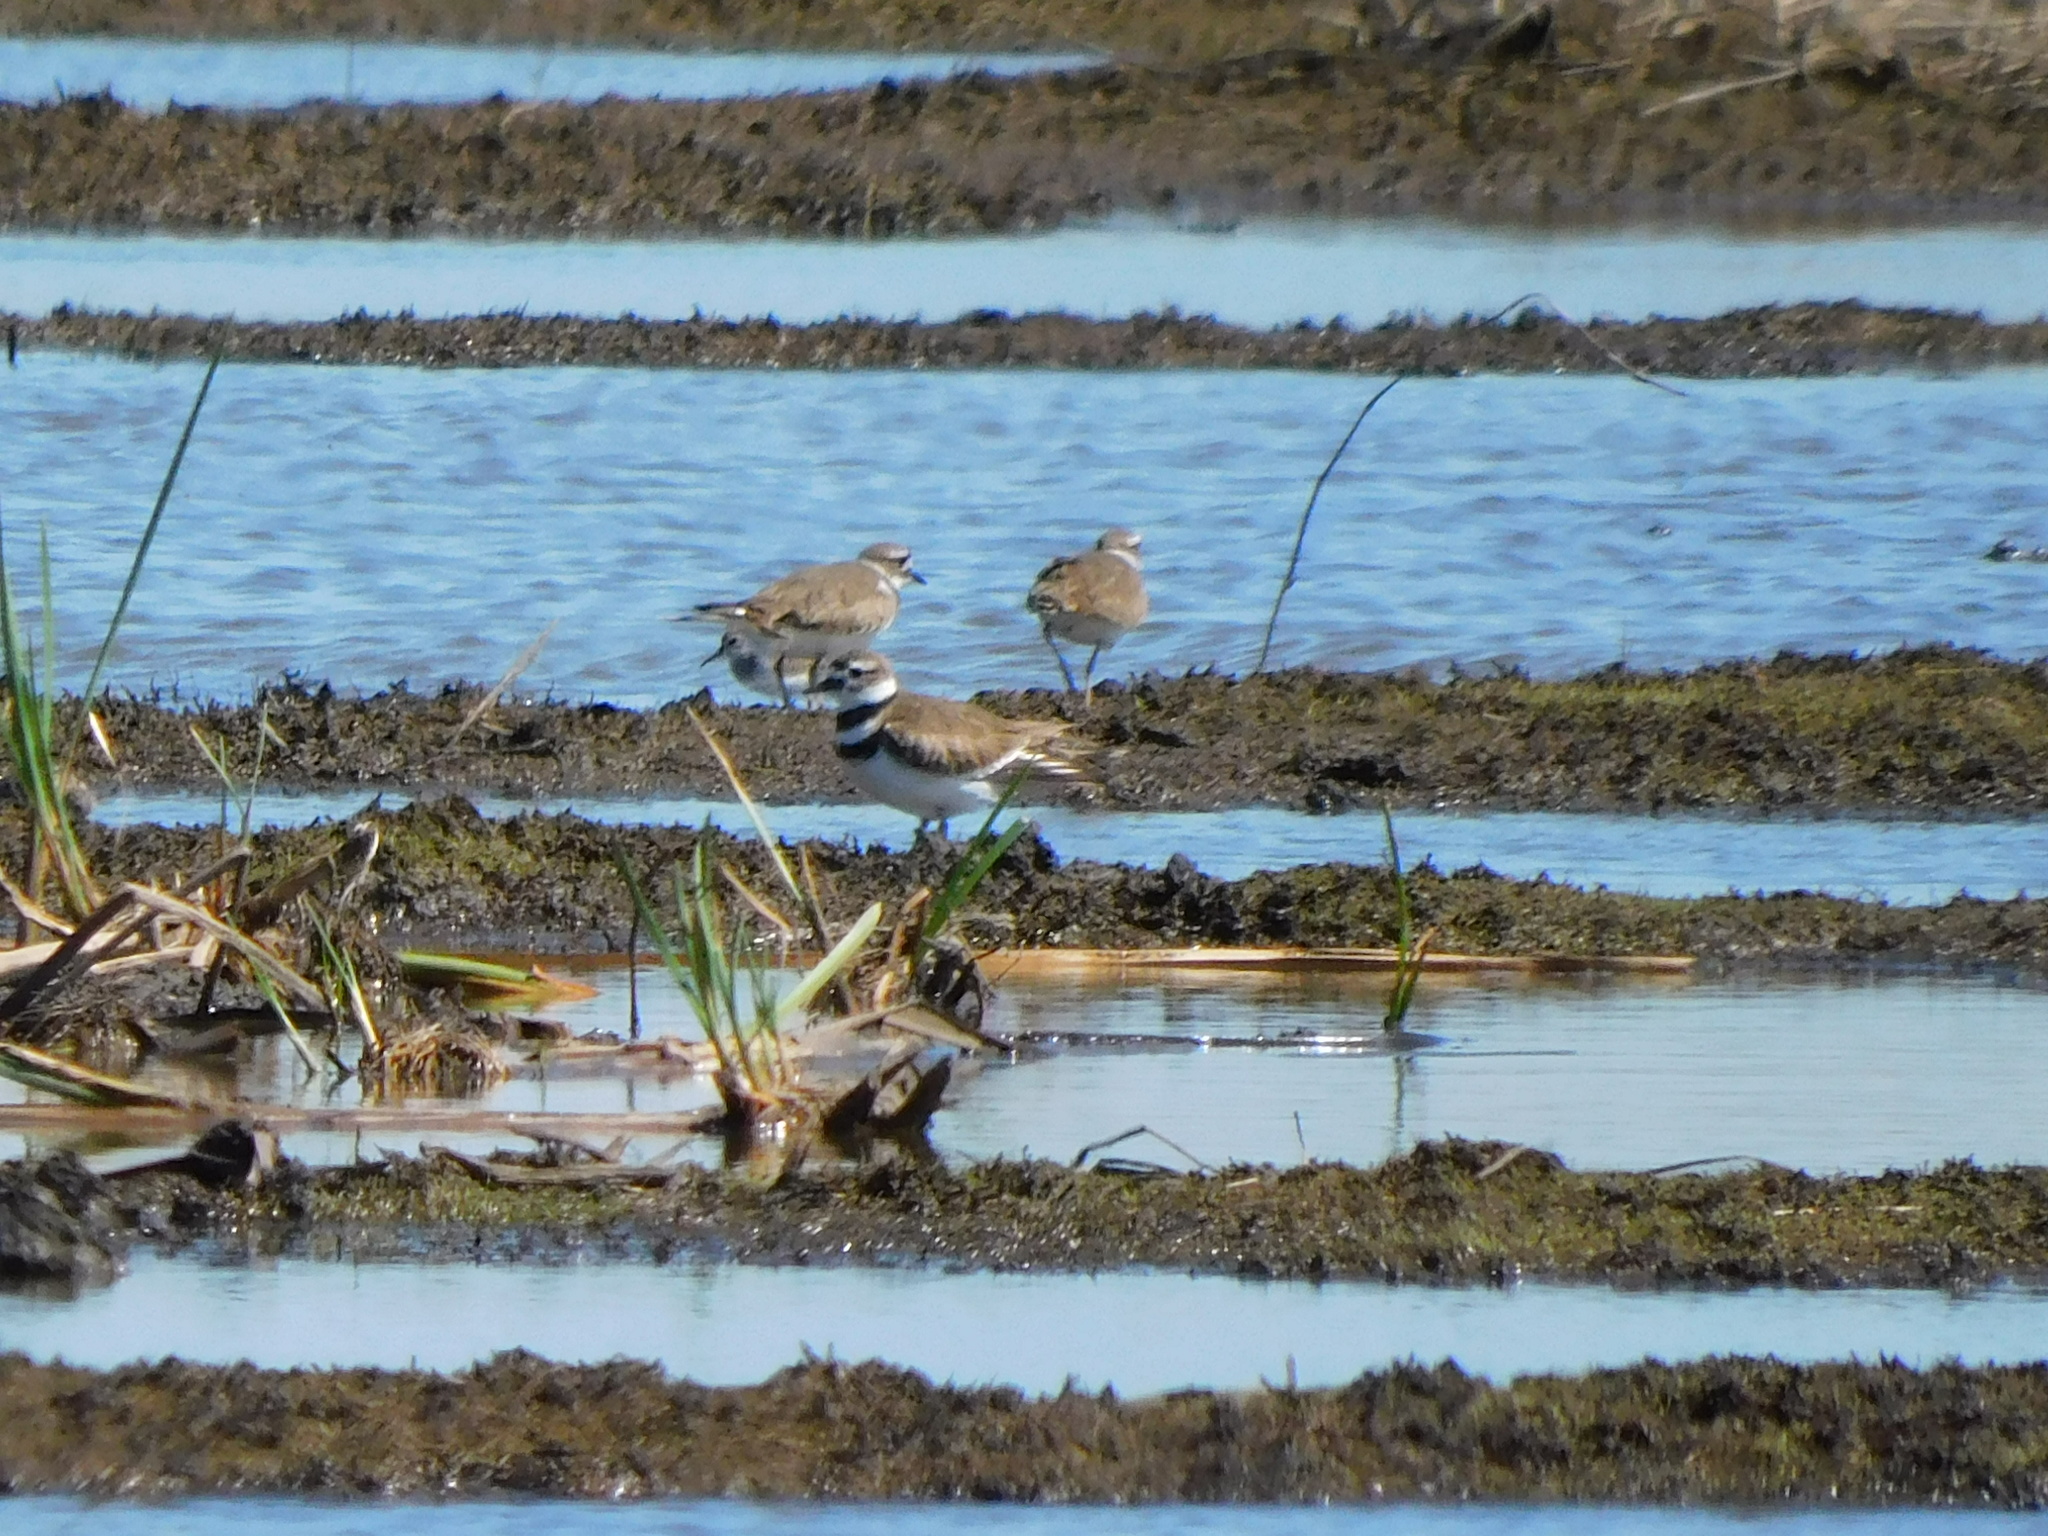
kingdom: Animalia
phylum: Chordata
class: Aves
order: Charadriiformes
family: Charadriidae
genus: Charadrius
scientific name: Charadrius vociferus
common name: Killdeer
